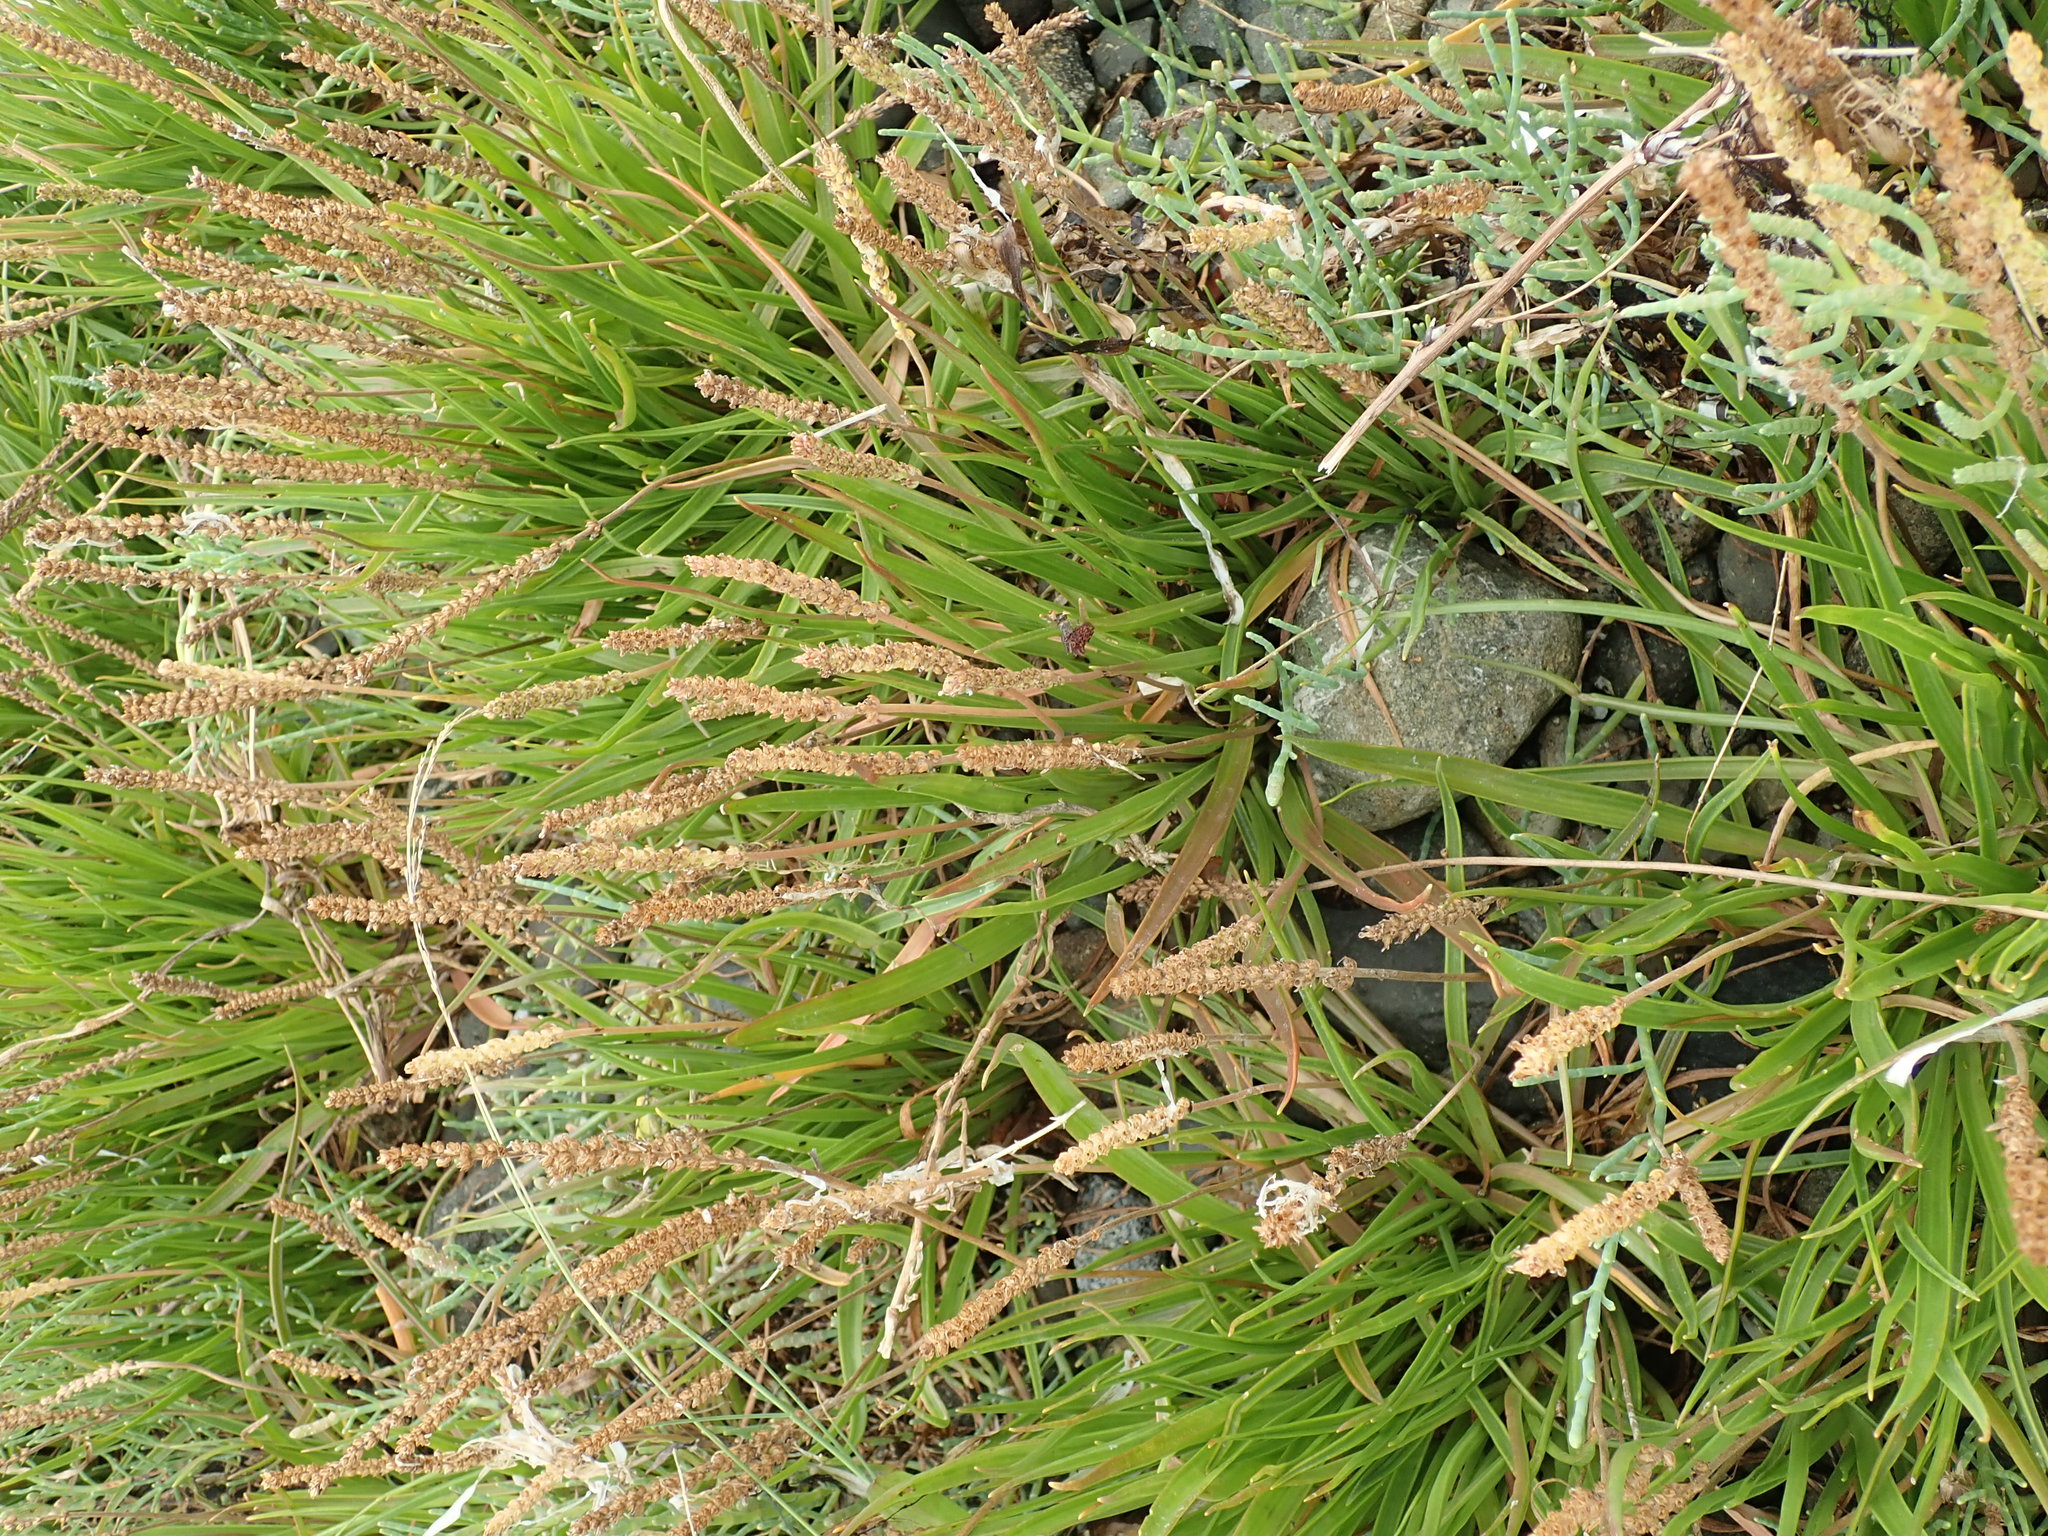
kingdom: Plantae
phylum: Tracheophyta
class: Magnoliopsida
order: Lamiales
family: Plantaginaceae
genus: Plantago
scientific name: Plantago maritima
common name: Sea plantain
